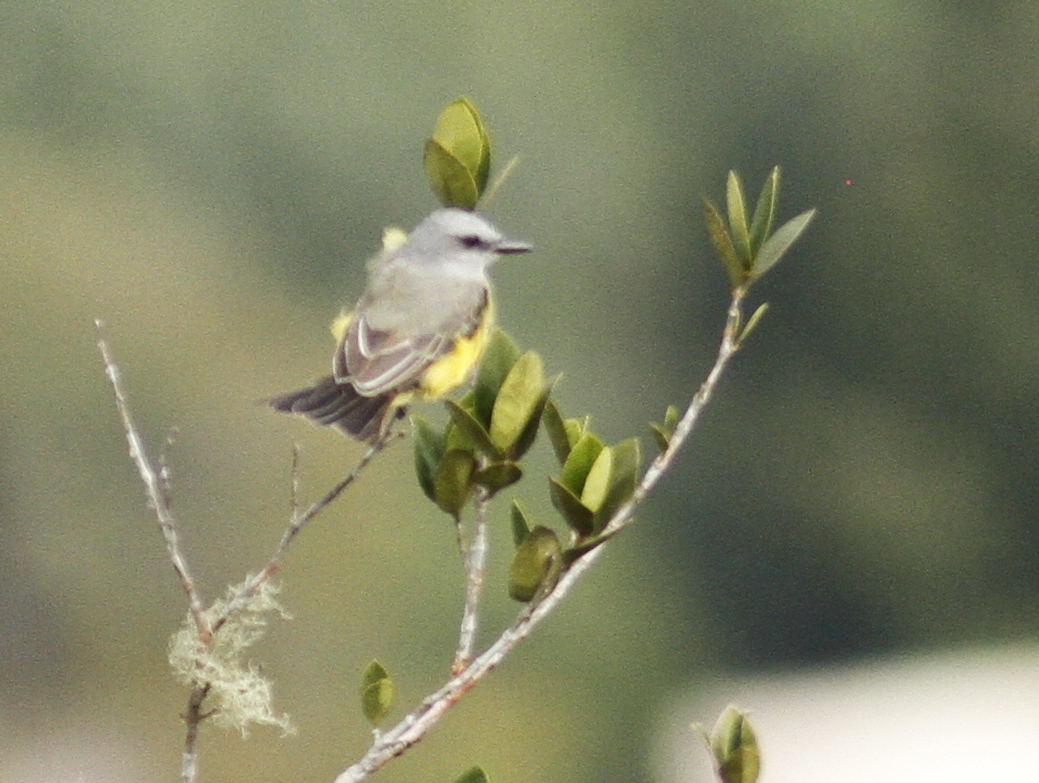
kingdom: Animalia
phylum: Chordata
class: Aves
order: Passeriformes
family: Tyrannidae
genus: Tyrannus
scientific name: Tyrannus melancholicus
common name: Tropical kingbird
